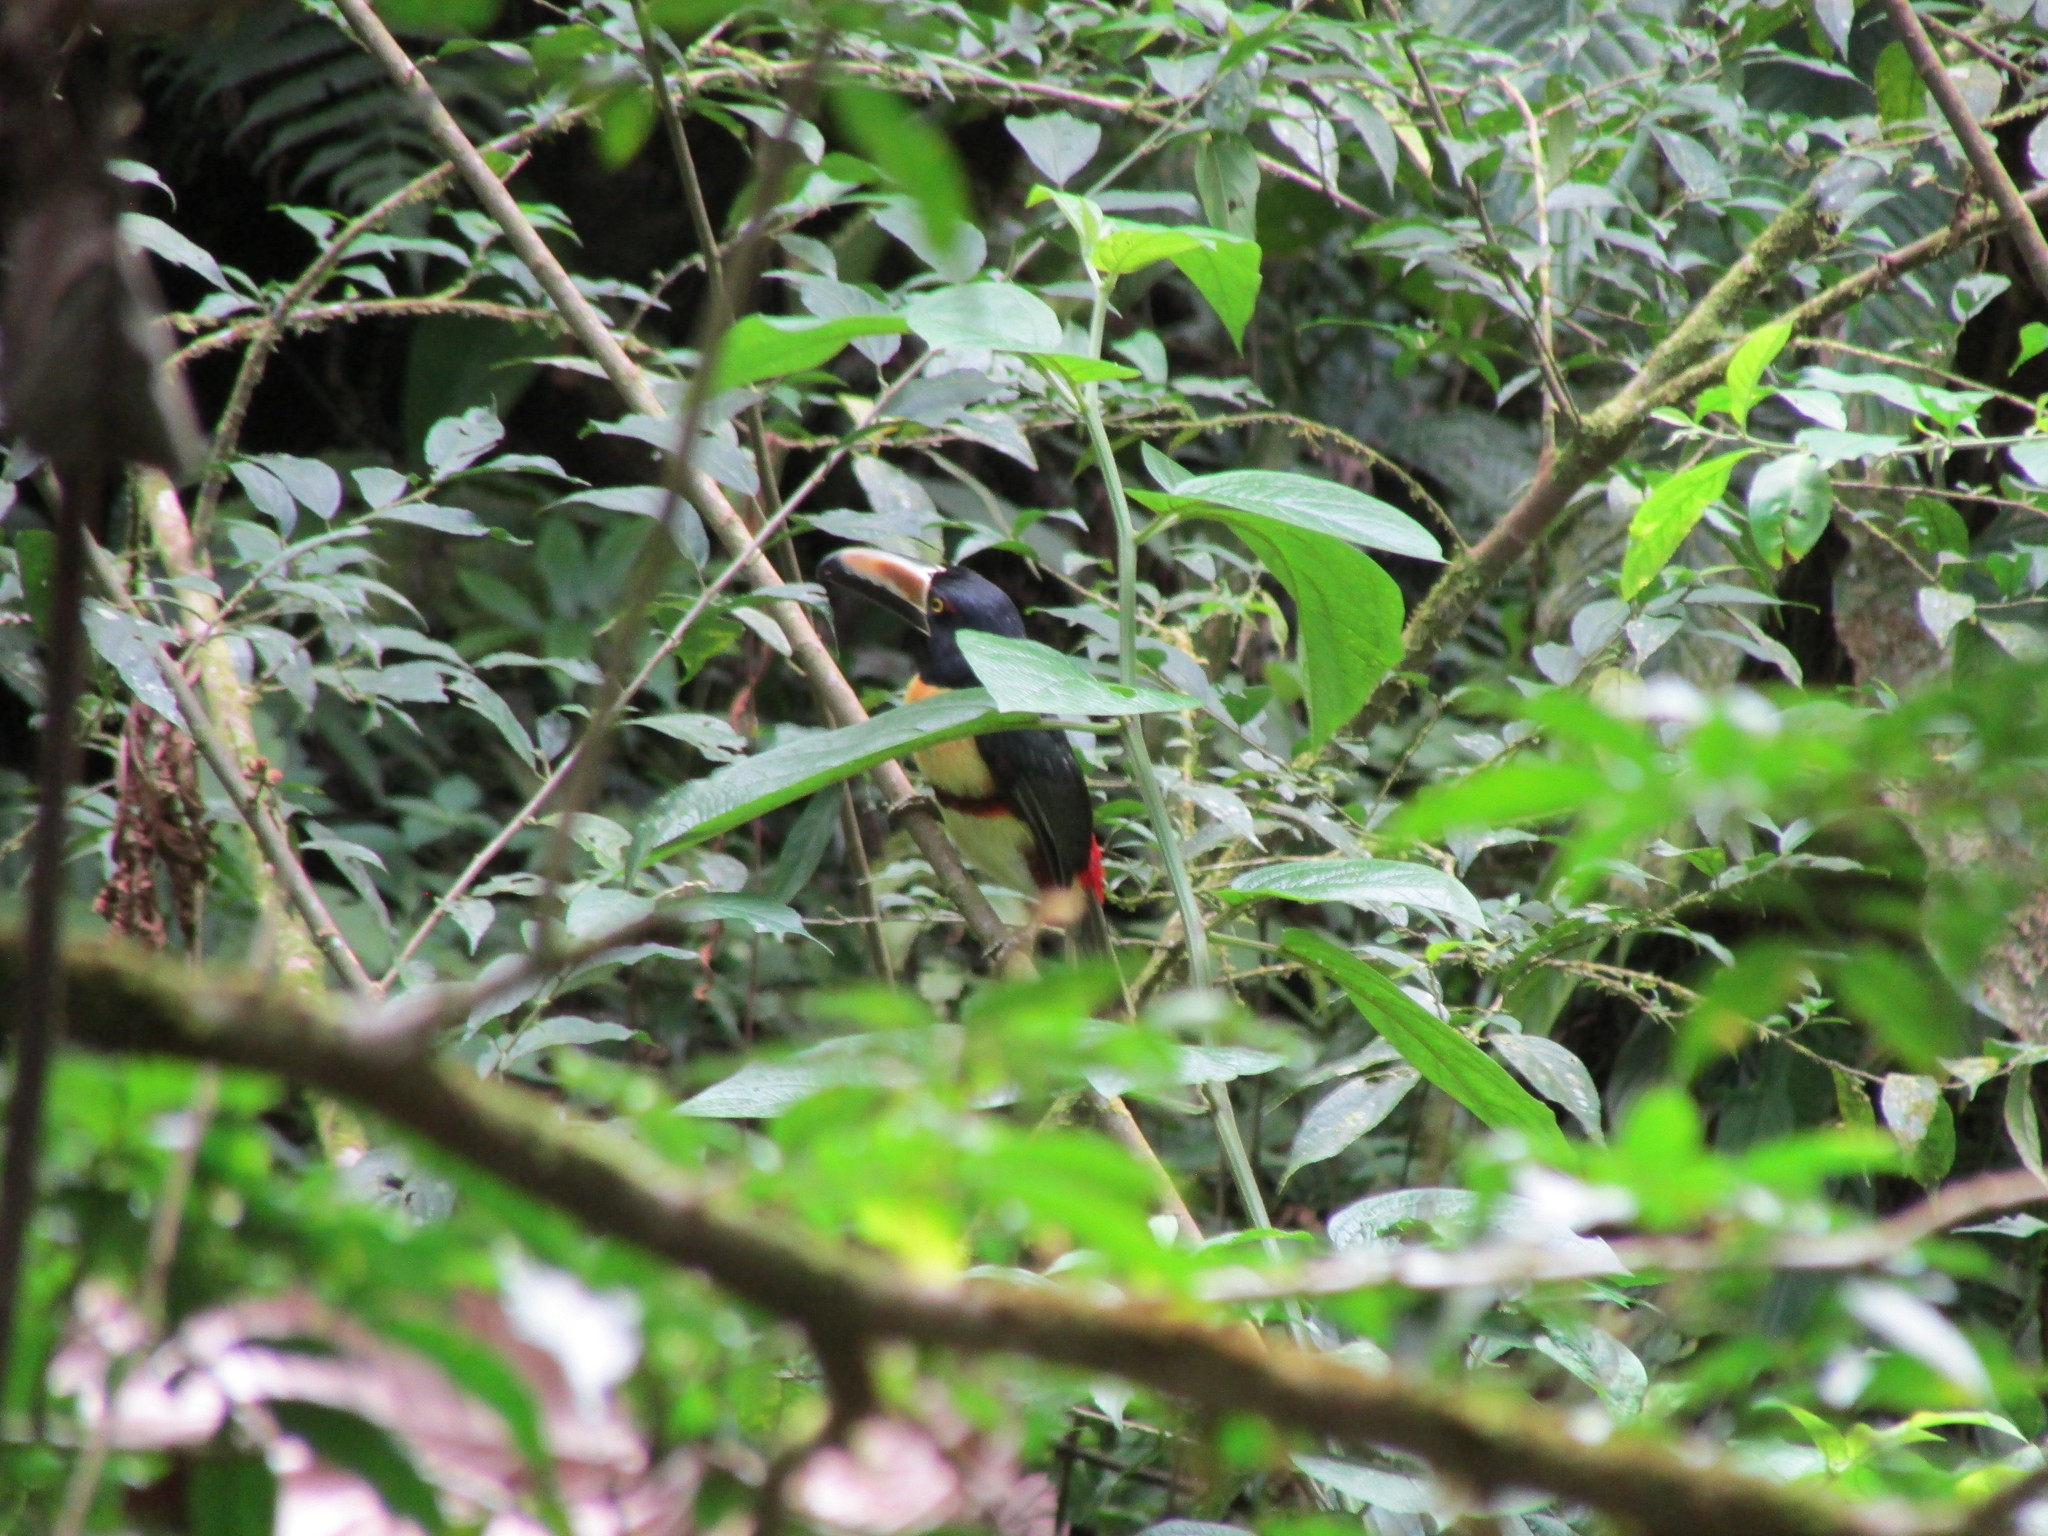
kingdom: Animalia
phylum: Chordata
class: Aves
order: Piciformes
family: Ramphastidae
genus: Pteroglossus
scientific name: Pteroglossus torquatus
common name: Collared aracari
